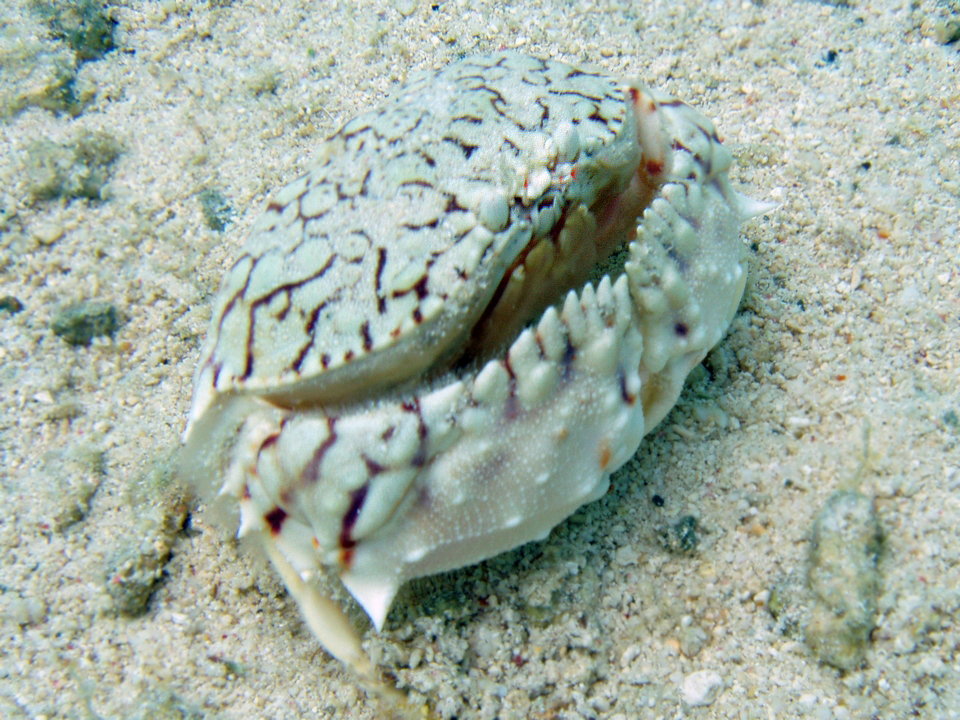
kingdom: Animalia
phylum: Arthropoda
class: Malacostraca
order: Decapoda
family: Calappidae
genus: Calappa
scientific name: Calappa ocellata
